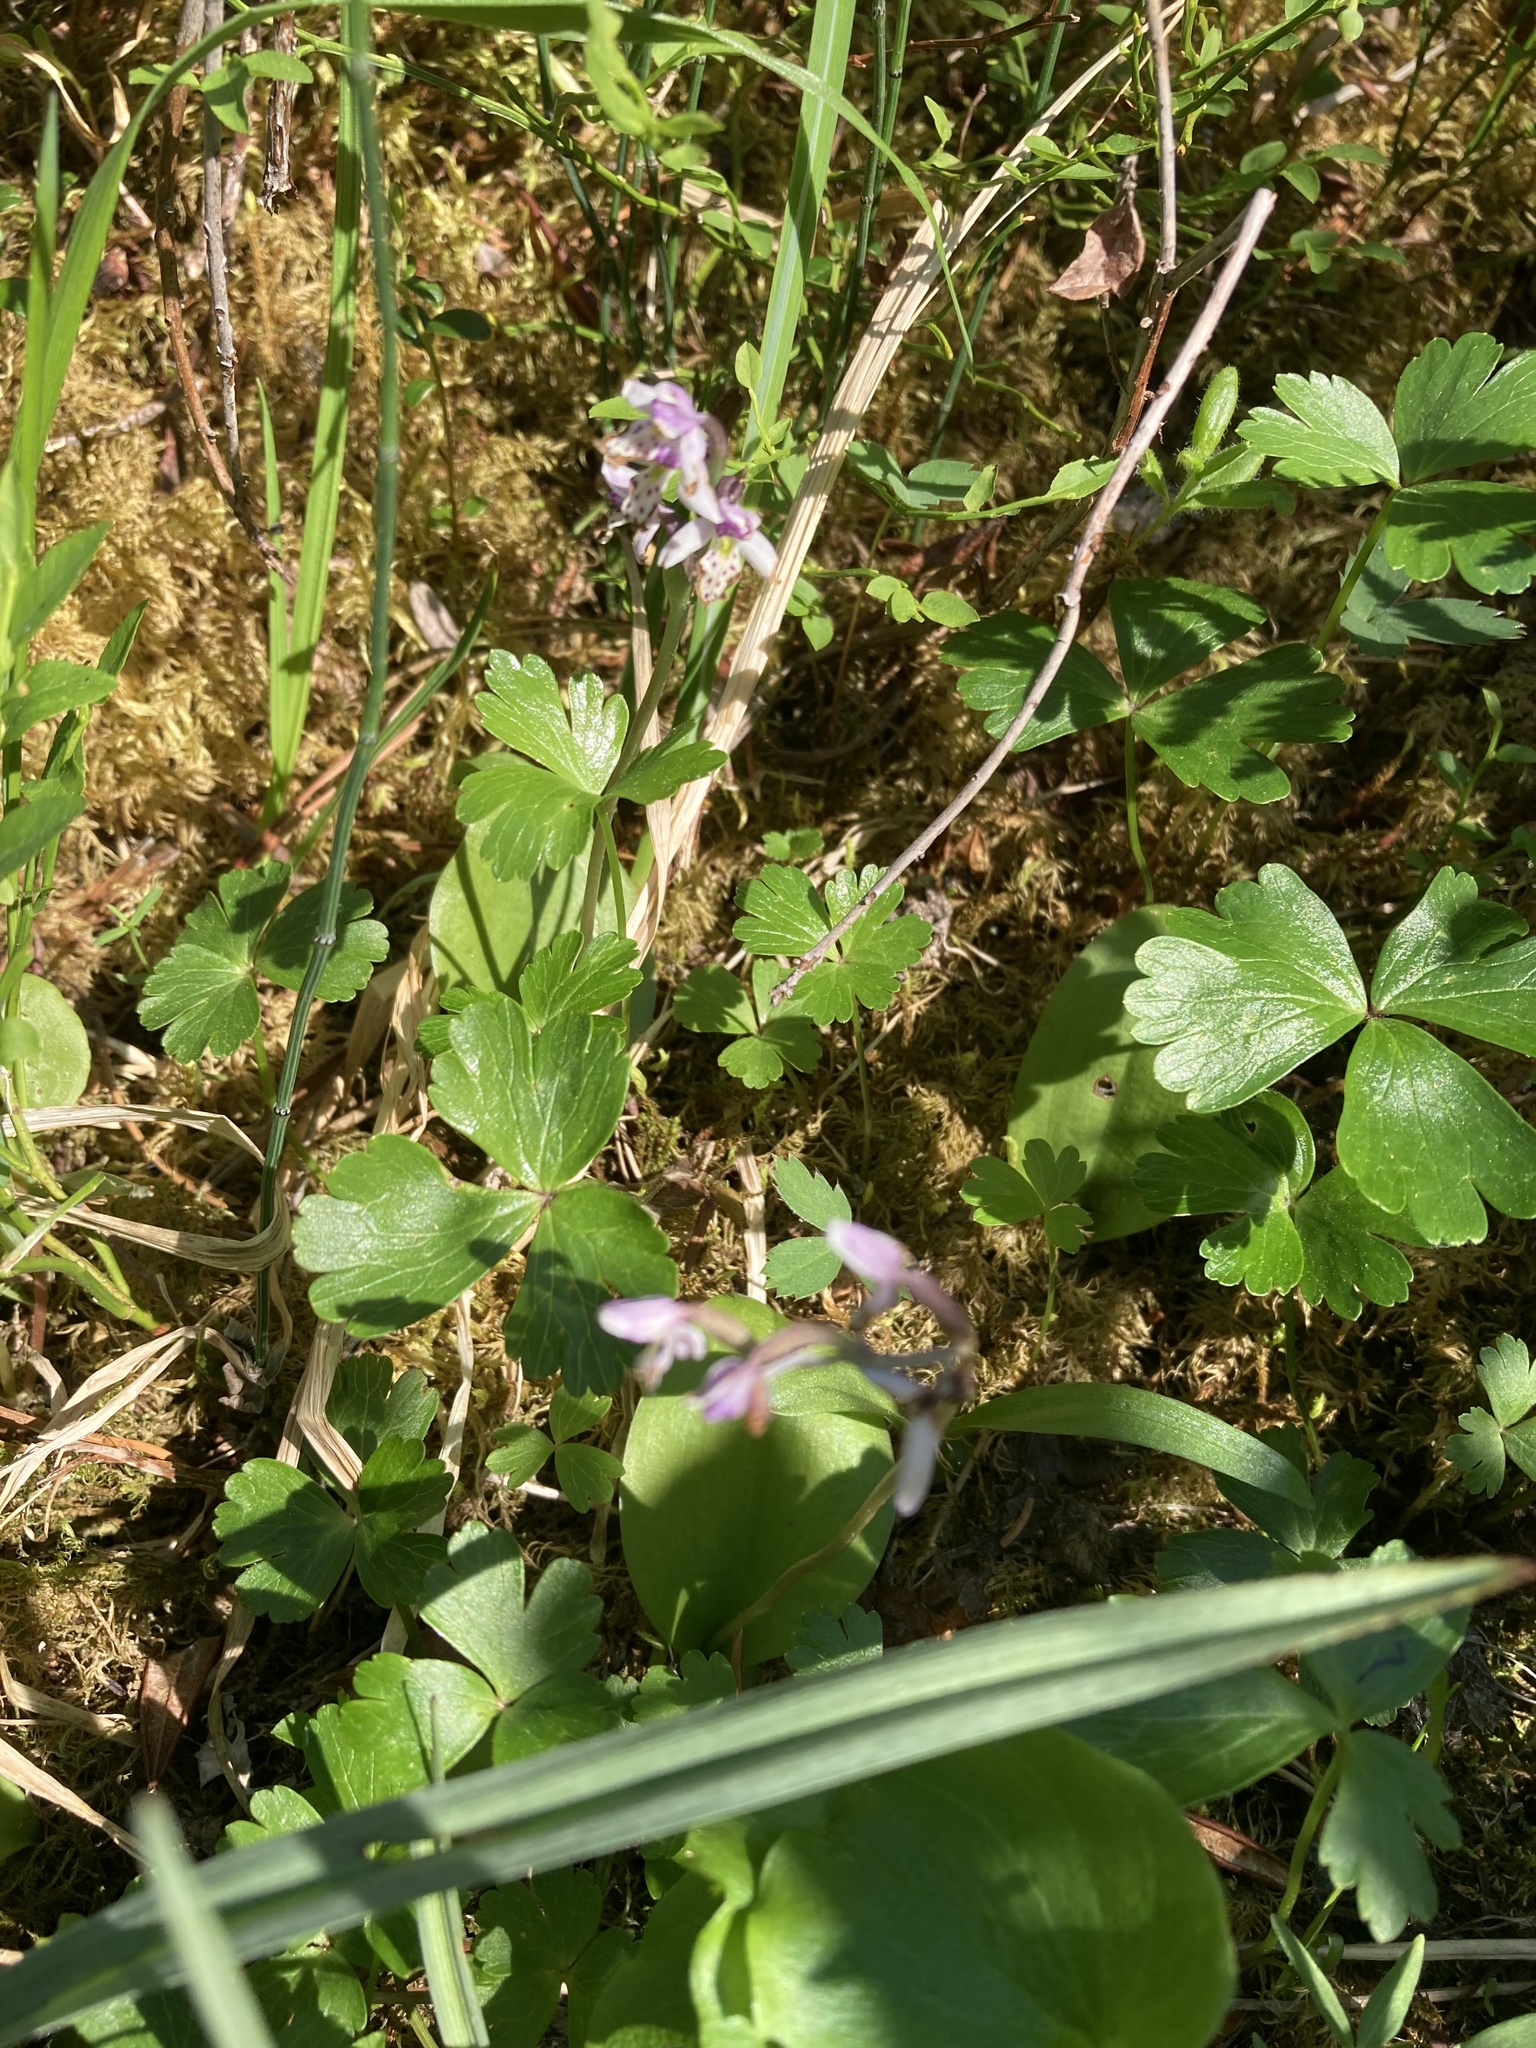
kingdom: Plantae
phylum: Tracheophyta
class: Liliopsida
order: Asparagales
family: Orchidaceae
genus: Galearis
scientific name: Galearis rotundifolia
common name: One-leaved orchis
